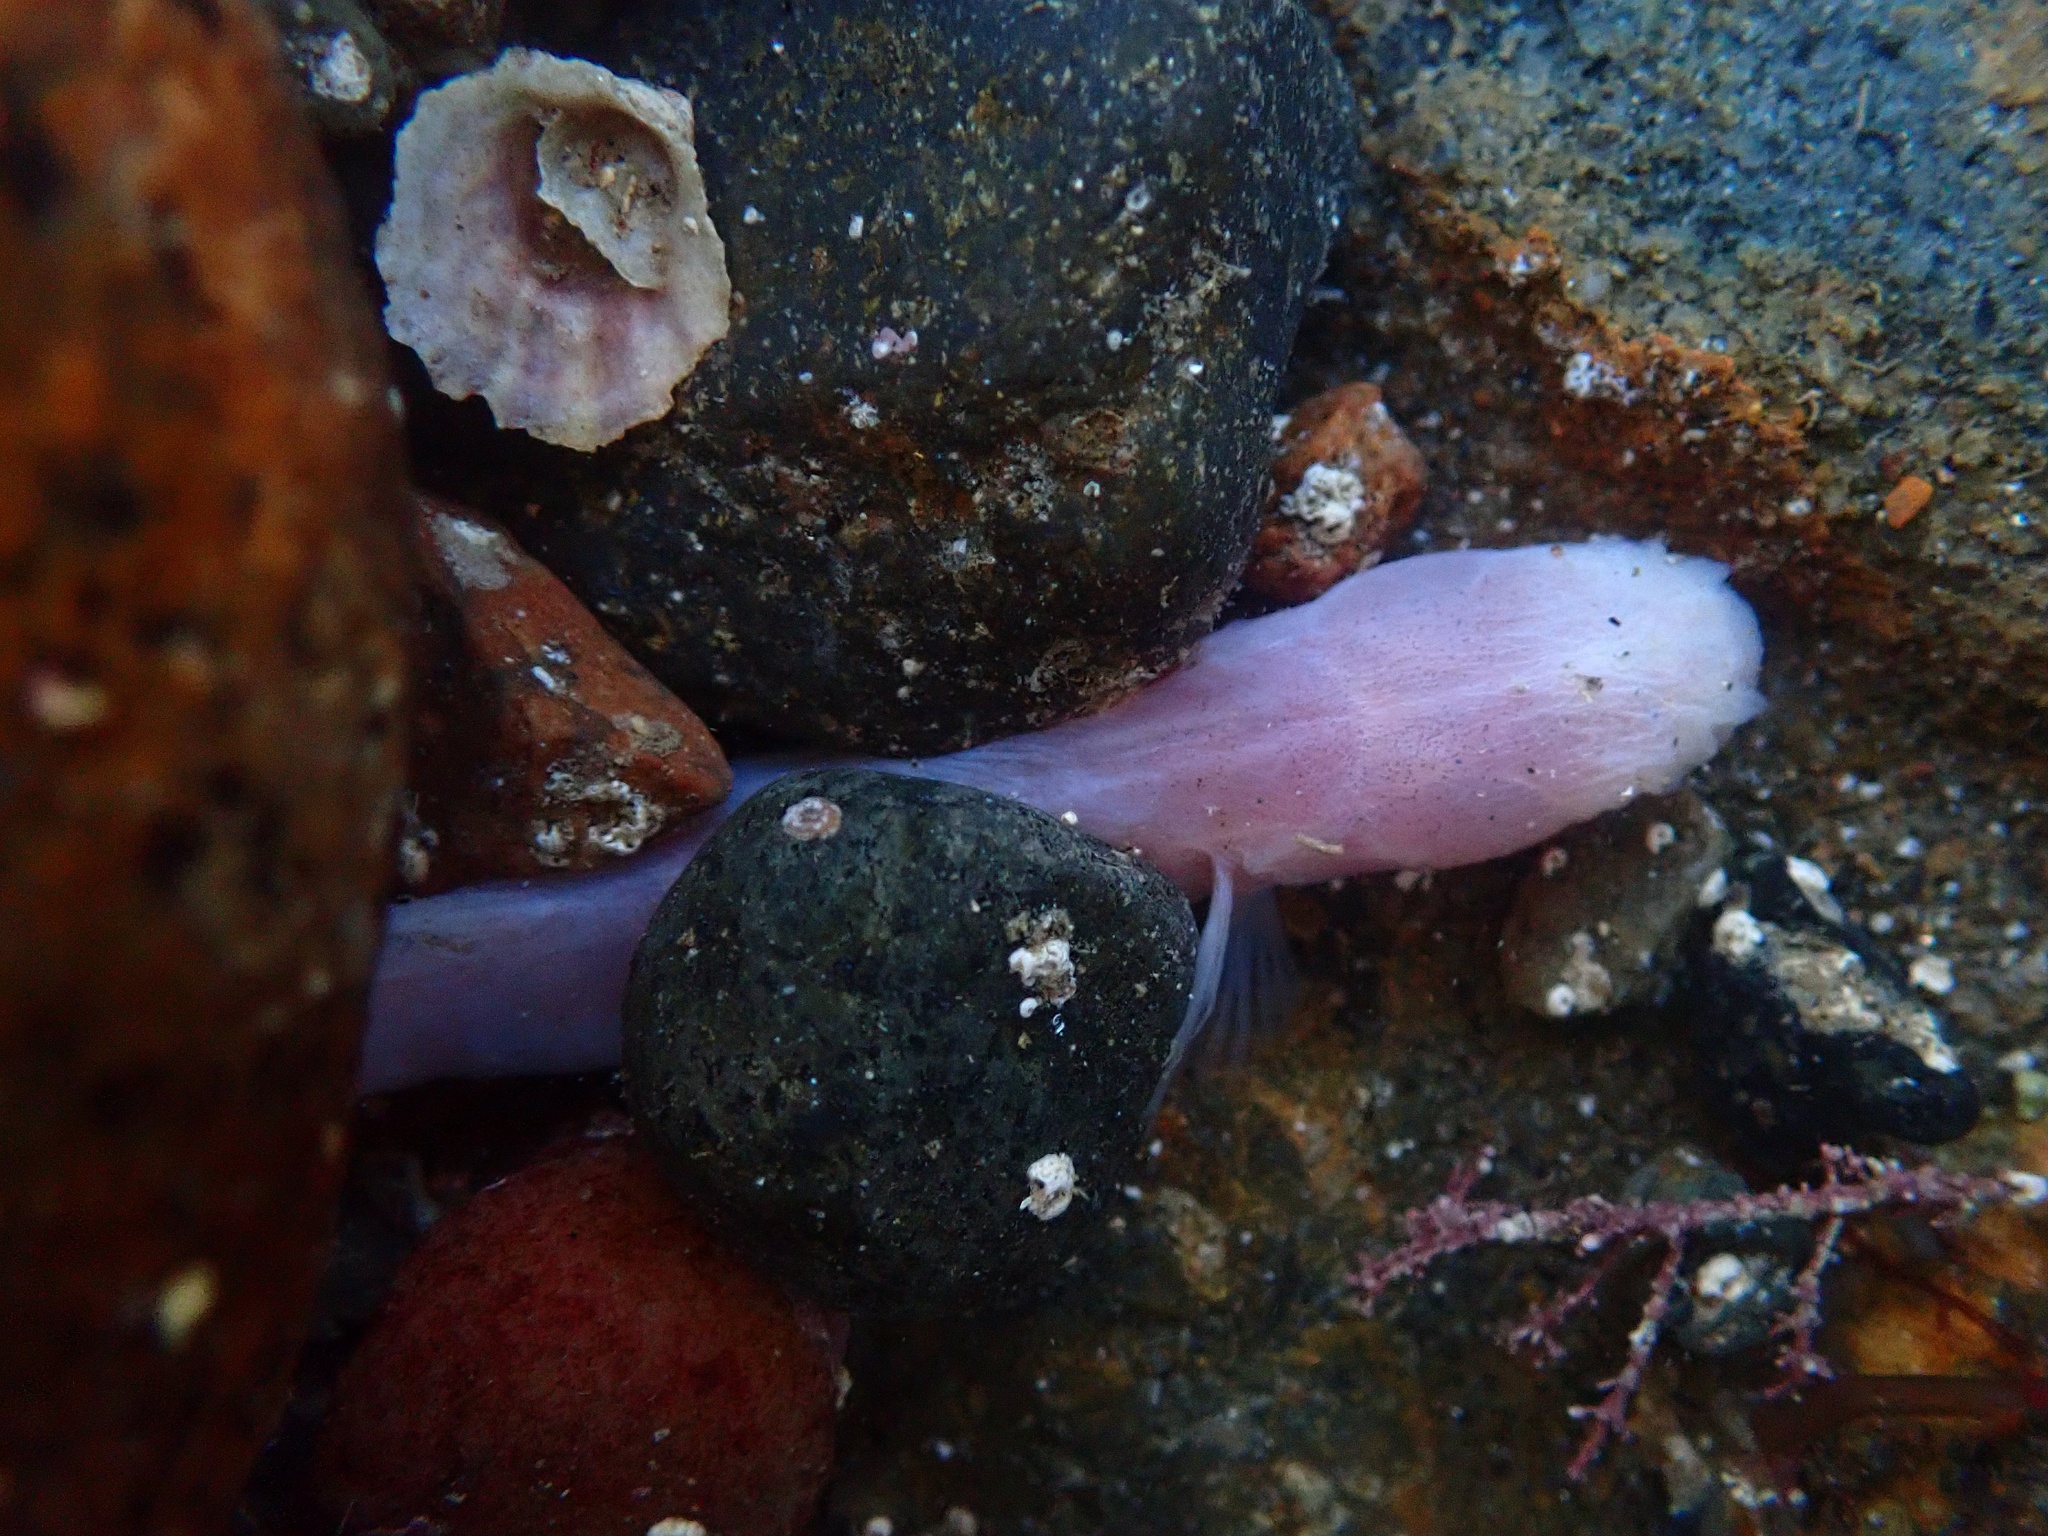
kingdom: Animalia
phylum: Chordata
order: Perciformes
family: Gobiidae
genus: Typhlogobius
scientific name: Typhlogobius californiensis
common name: Blind goby
